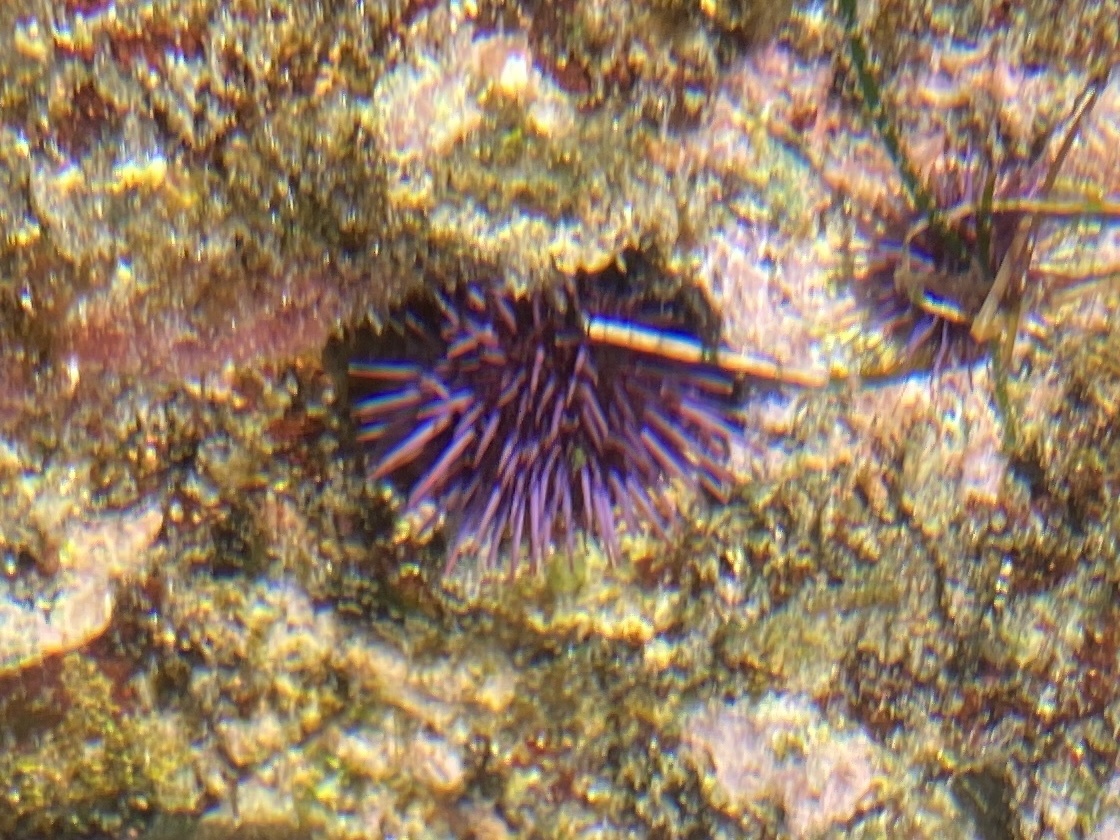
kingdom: Animalia
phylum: Echinodermata
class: Echinoidea
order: Camarodonta
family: Strongylocentrotidae
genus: Strongylocentrotus
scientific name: Strongylocentrotus purpuratus
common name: Purple sea urchin
